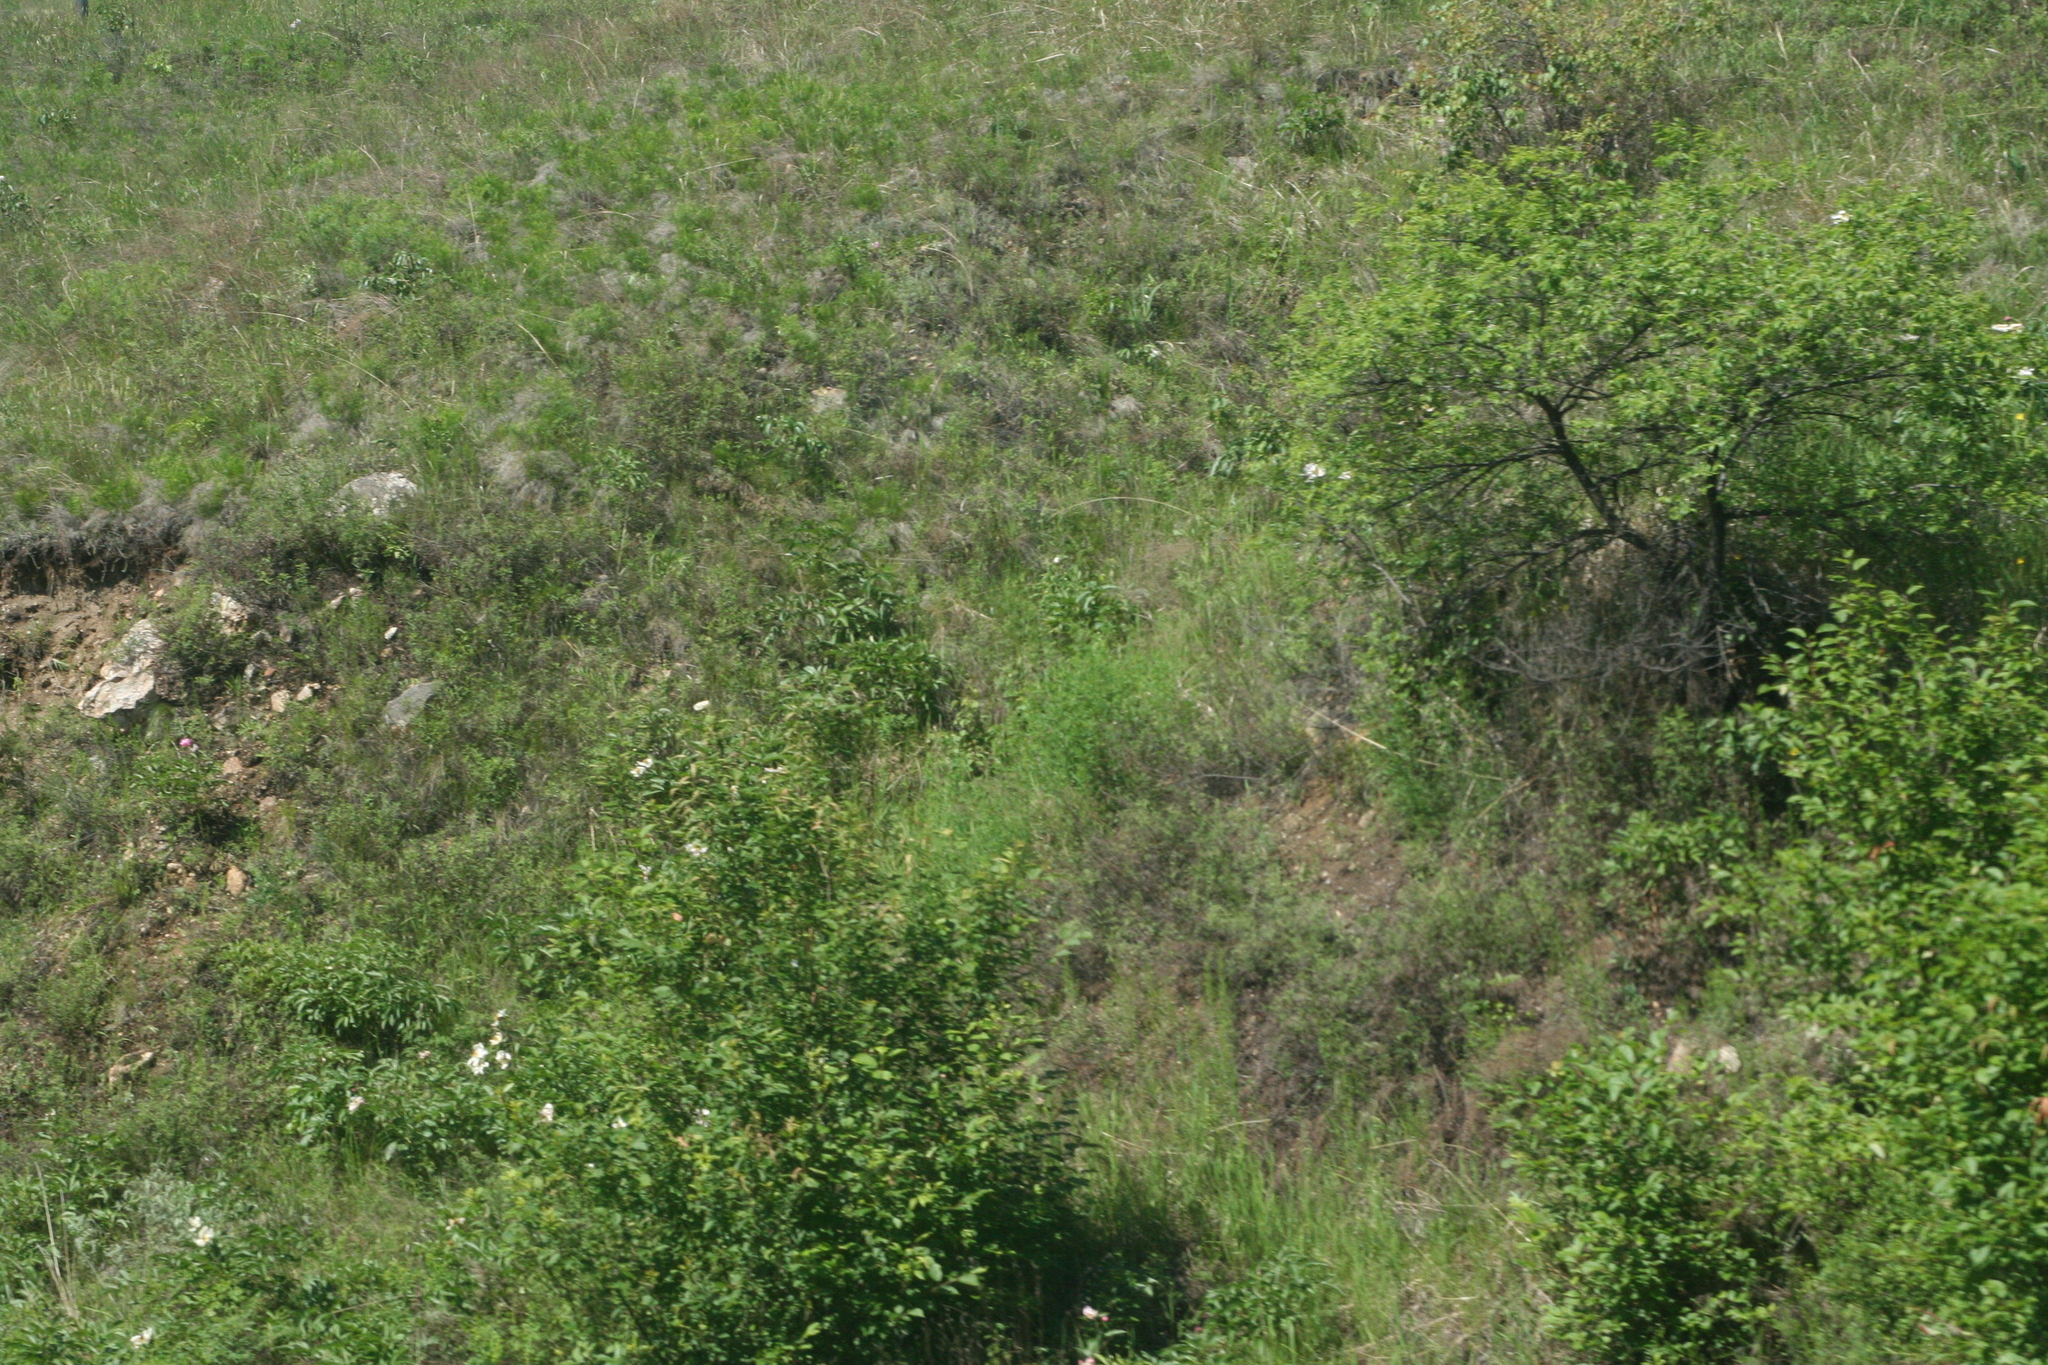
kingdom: Plantae
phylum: Tracheophyta
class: Magnoliopsida
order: Rosales
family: Ulmaceae
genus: Ulmus
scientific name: Ulmus pumila
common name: Siberian elm
